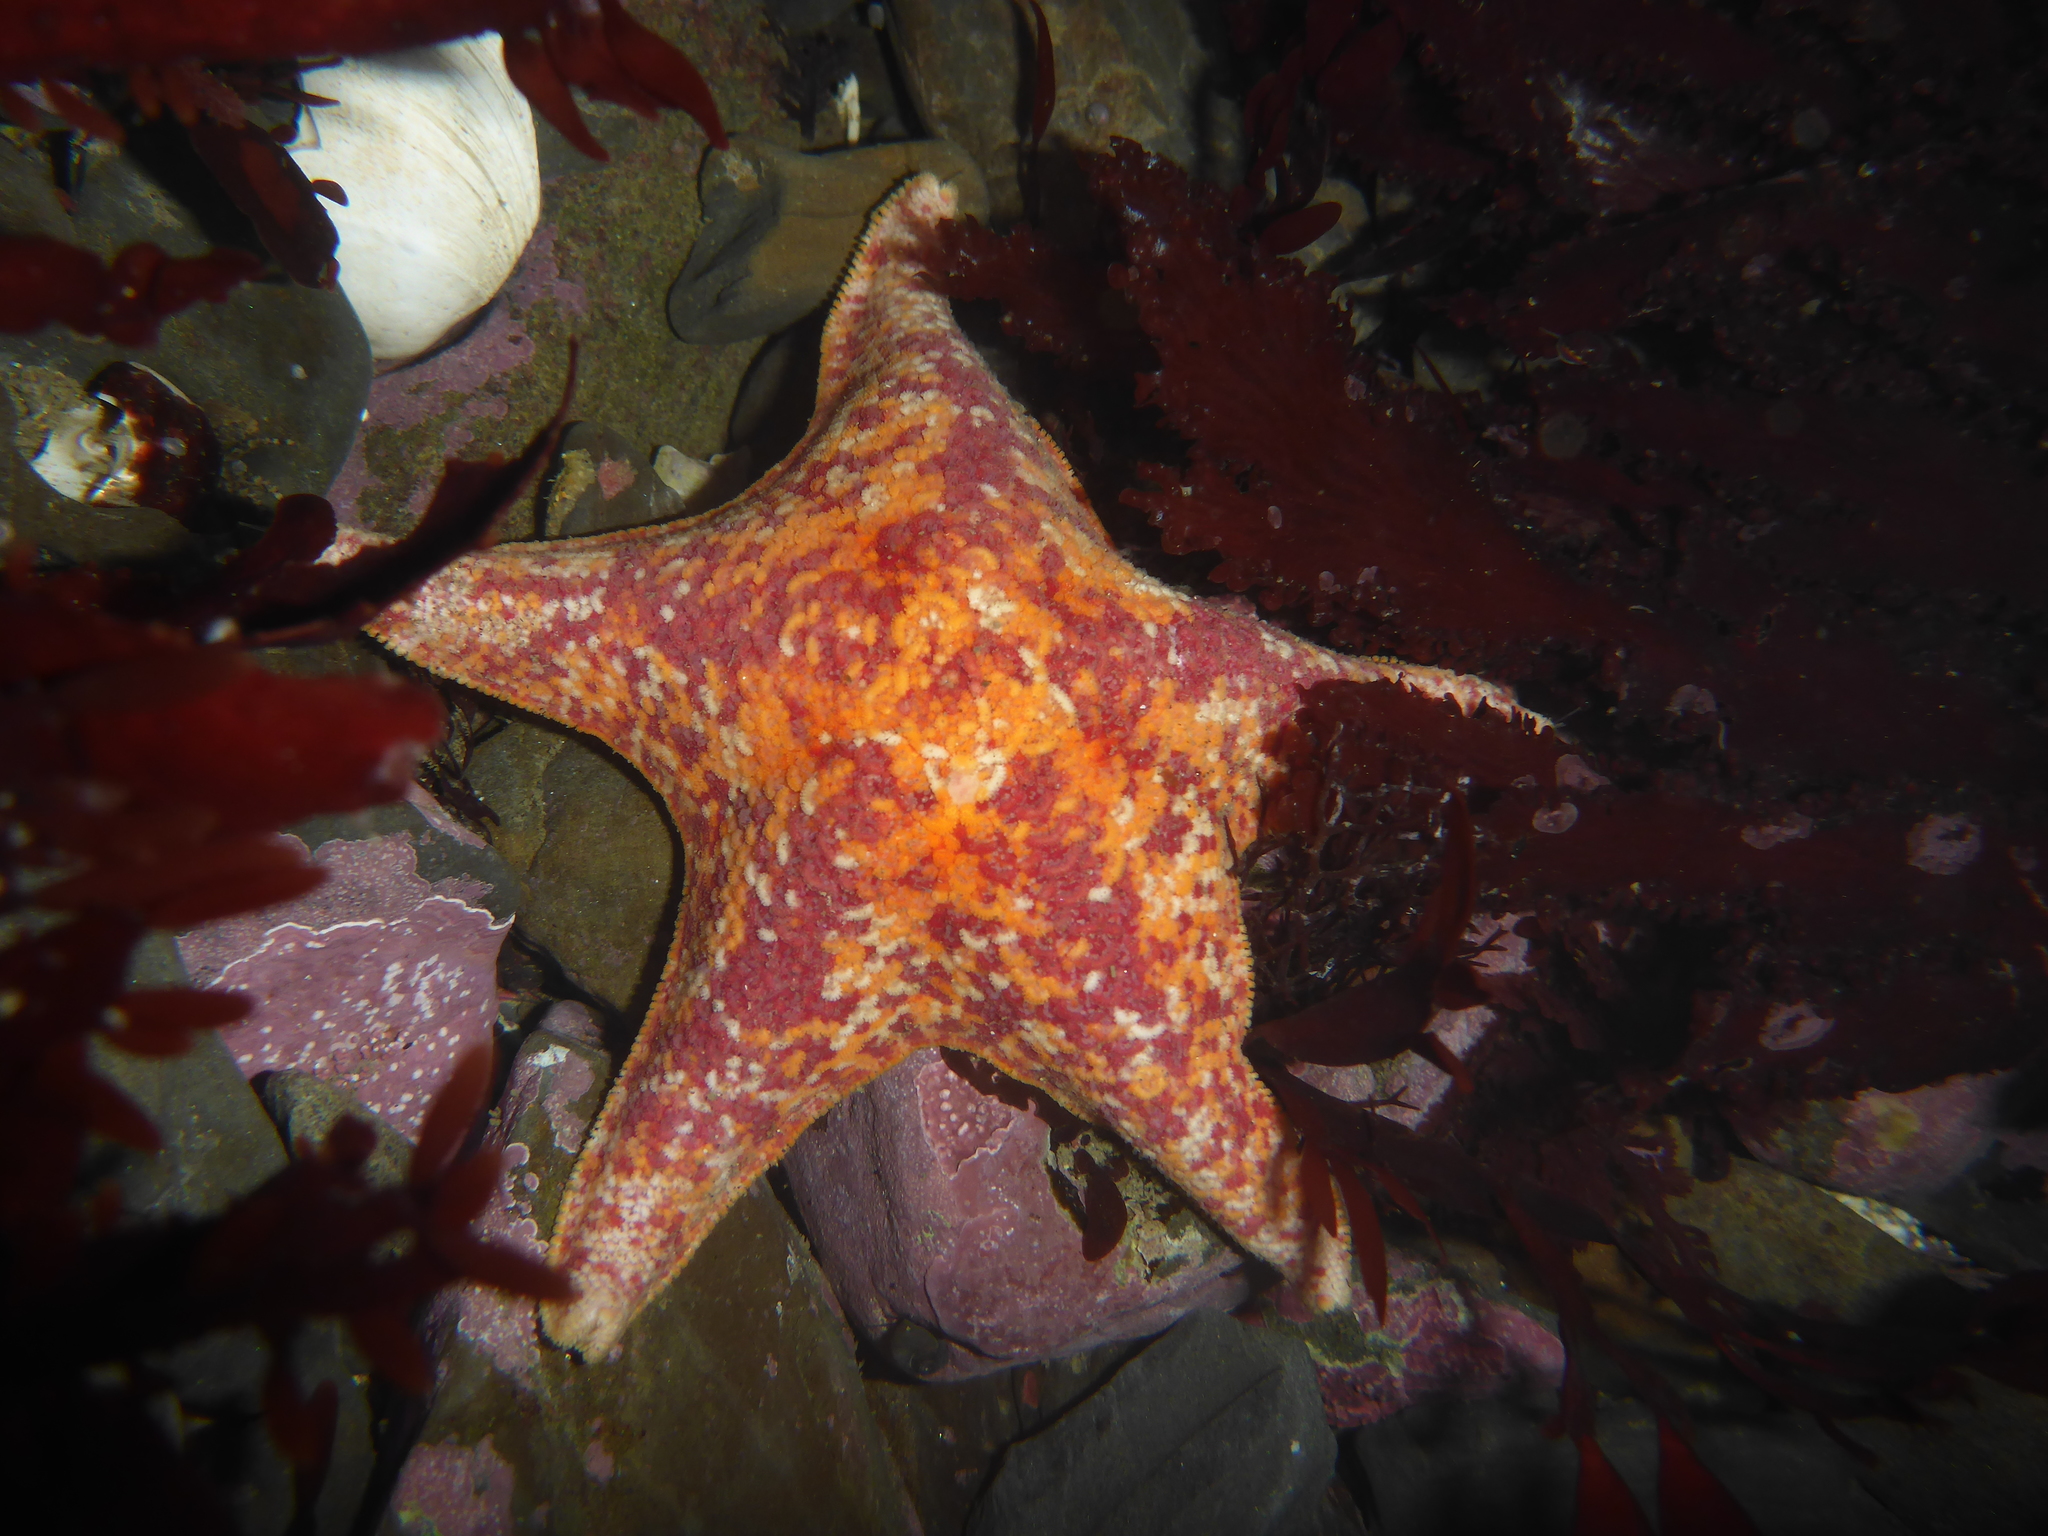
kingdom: Animalia
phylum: Echinodermata
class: Asteroidea
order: Valvatida
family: Asterinidae
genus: Patiria
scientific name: Patiria miniata
